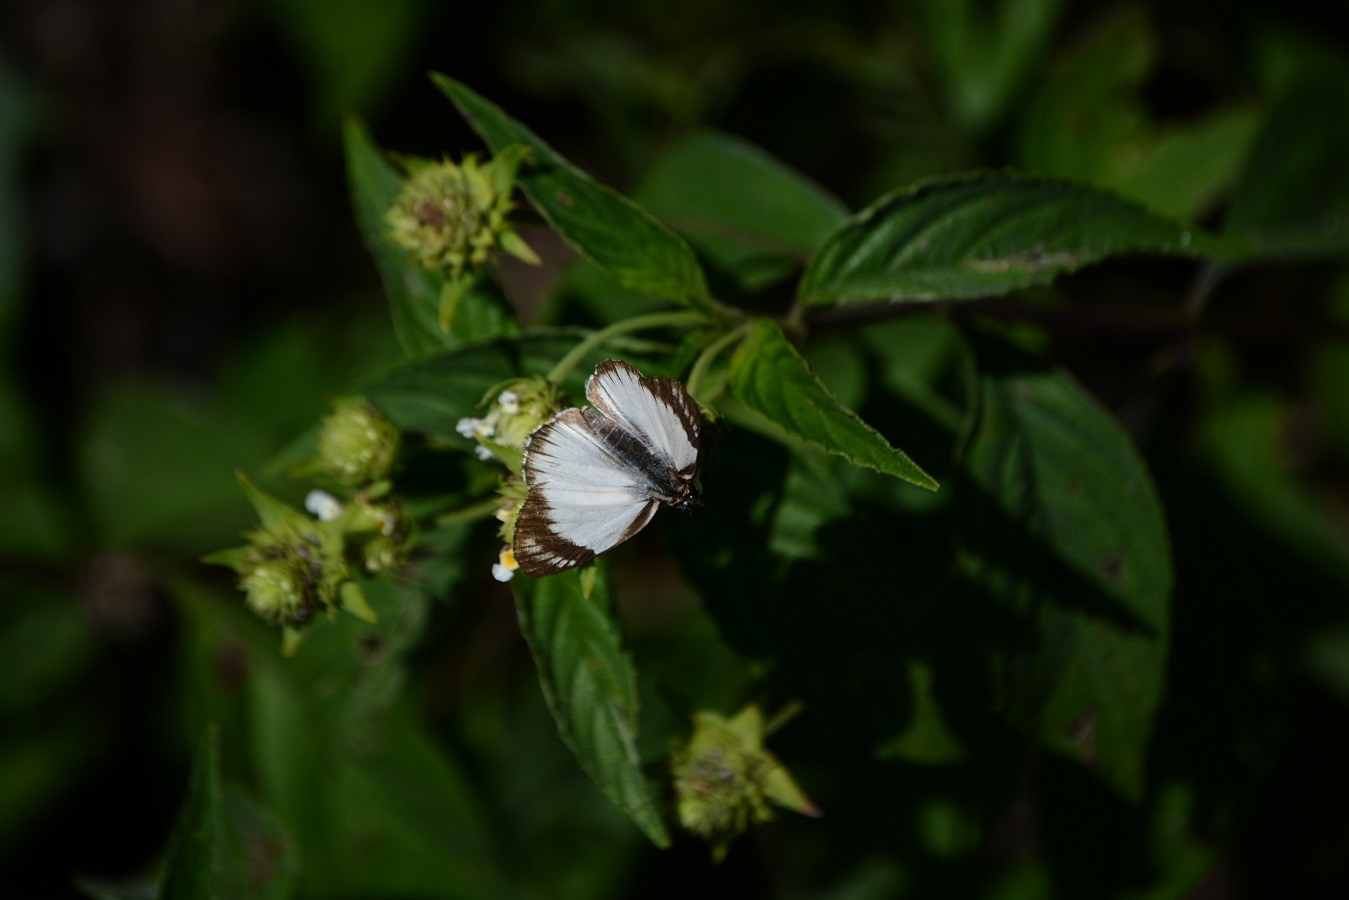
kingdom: Animalia
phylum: Arthropoda
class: Insecta
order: Lepidoptera
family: Hesperiidae
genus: Heliopetes
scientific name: Heliopetes alana
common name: Alana white-skipper
